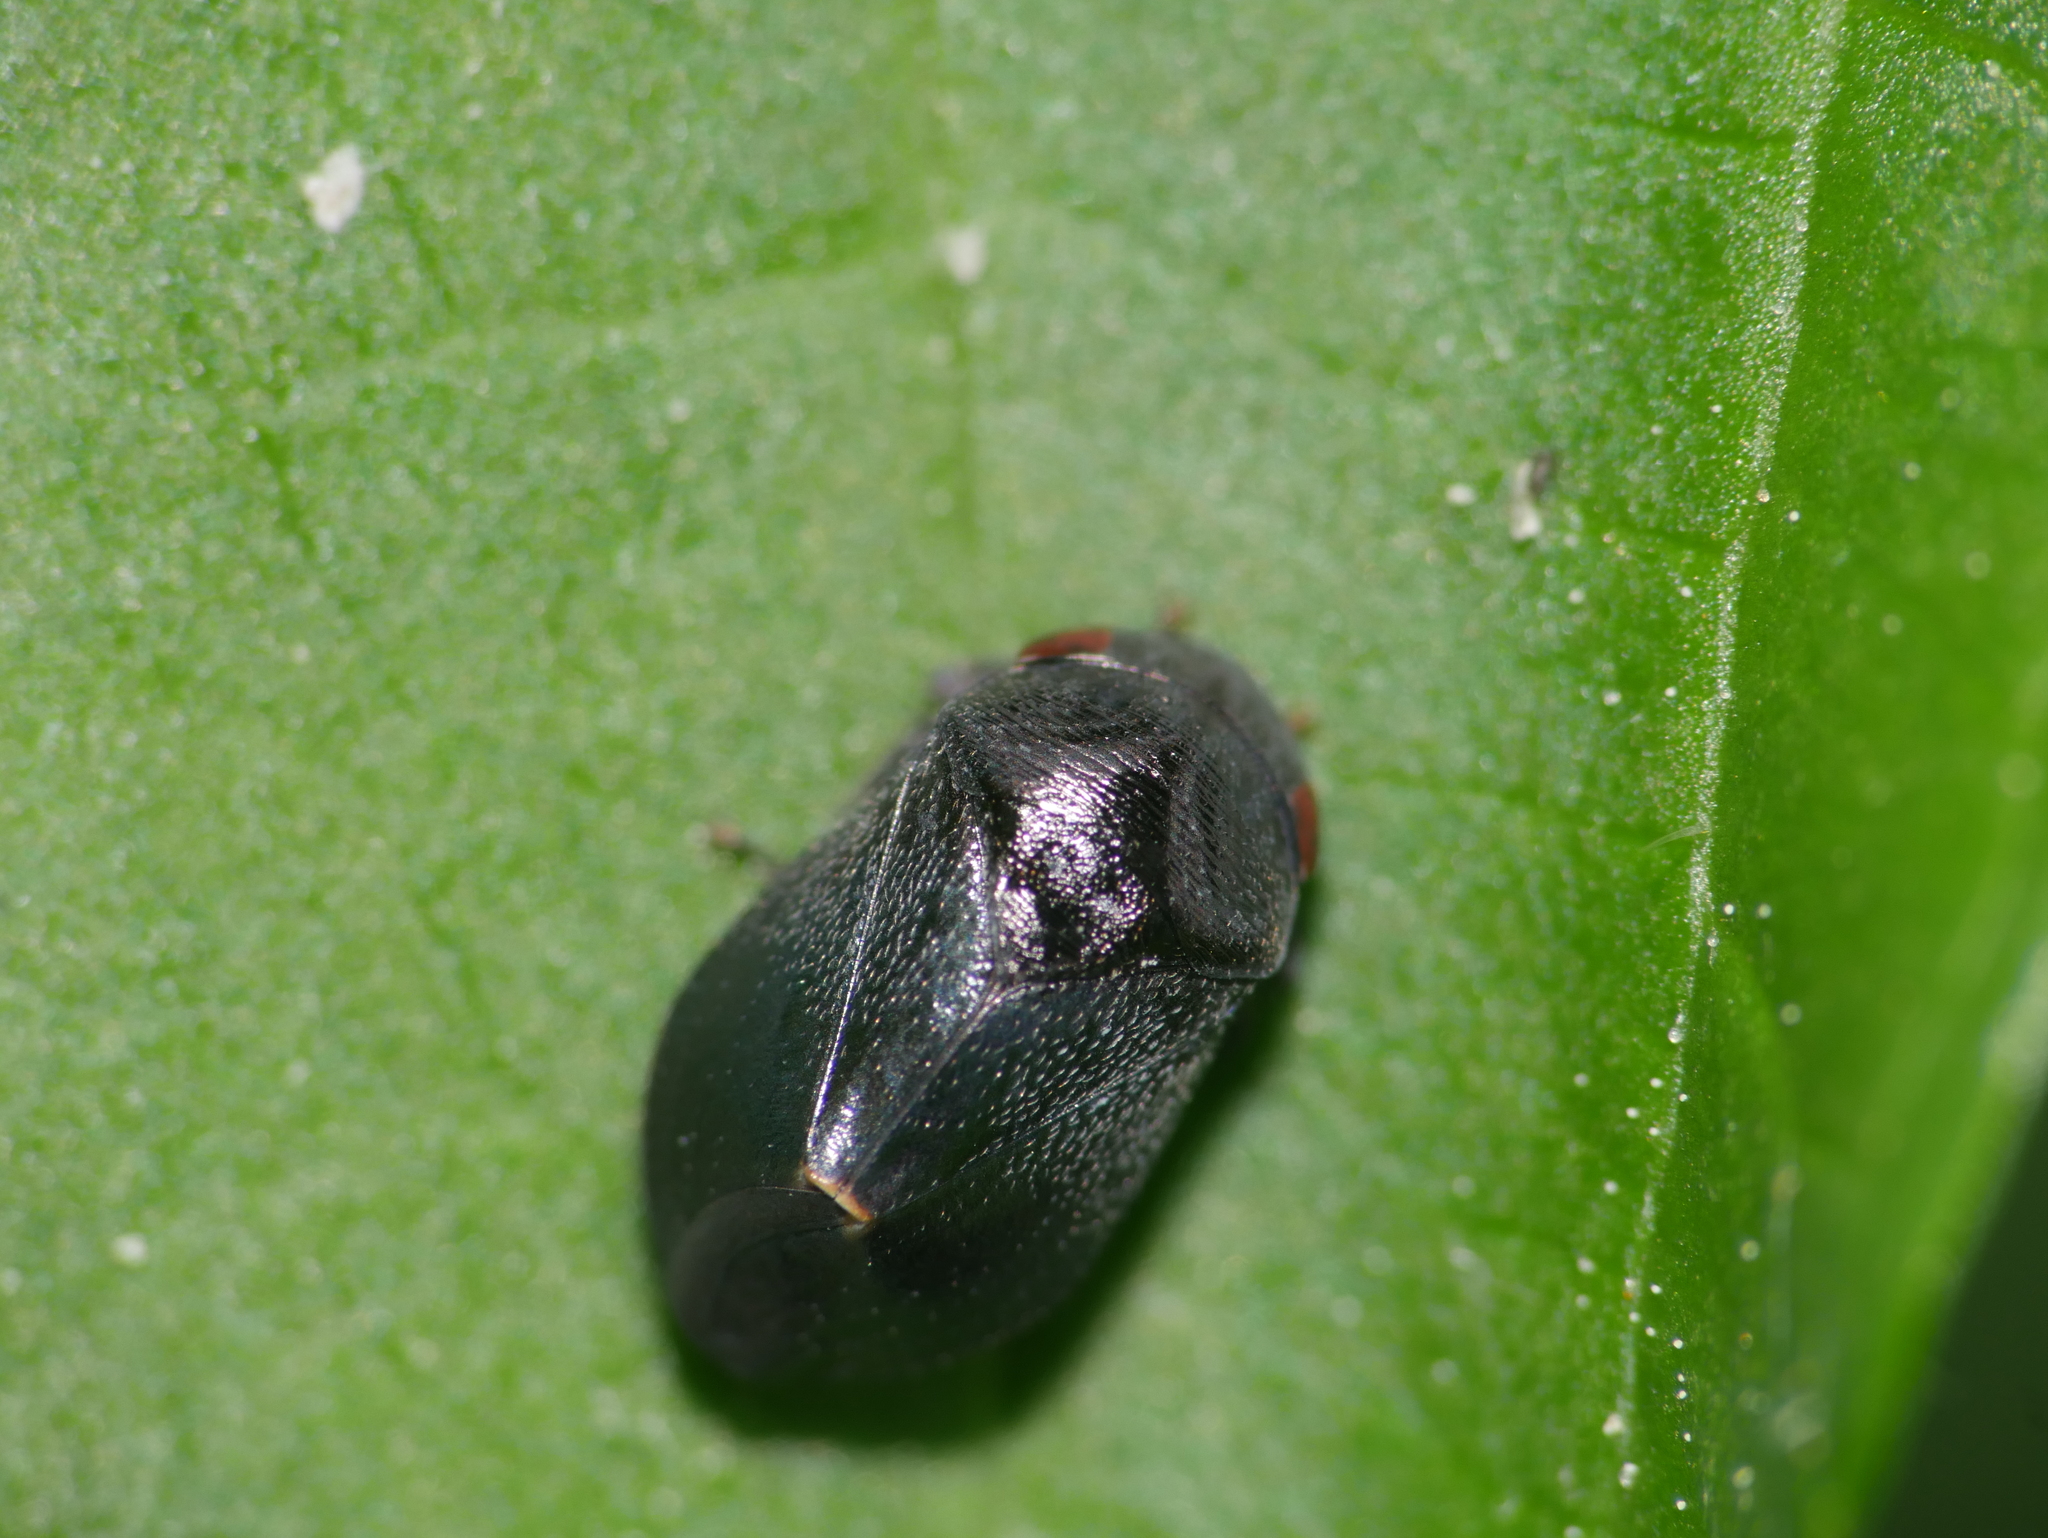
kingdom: Animalia
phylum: Arthropoda
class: Insecta
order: Hemiptera
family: Cicadellidae
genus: Penthimia
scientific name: Penthimia nigra
